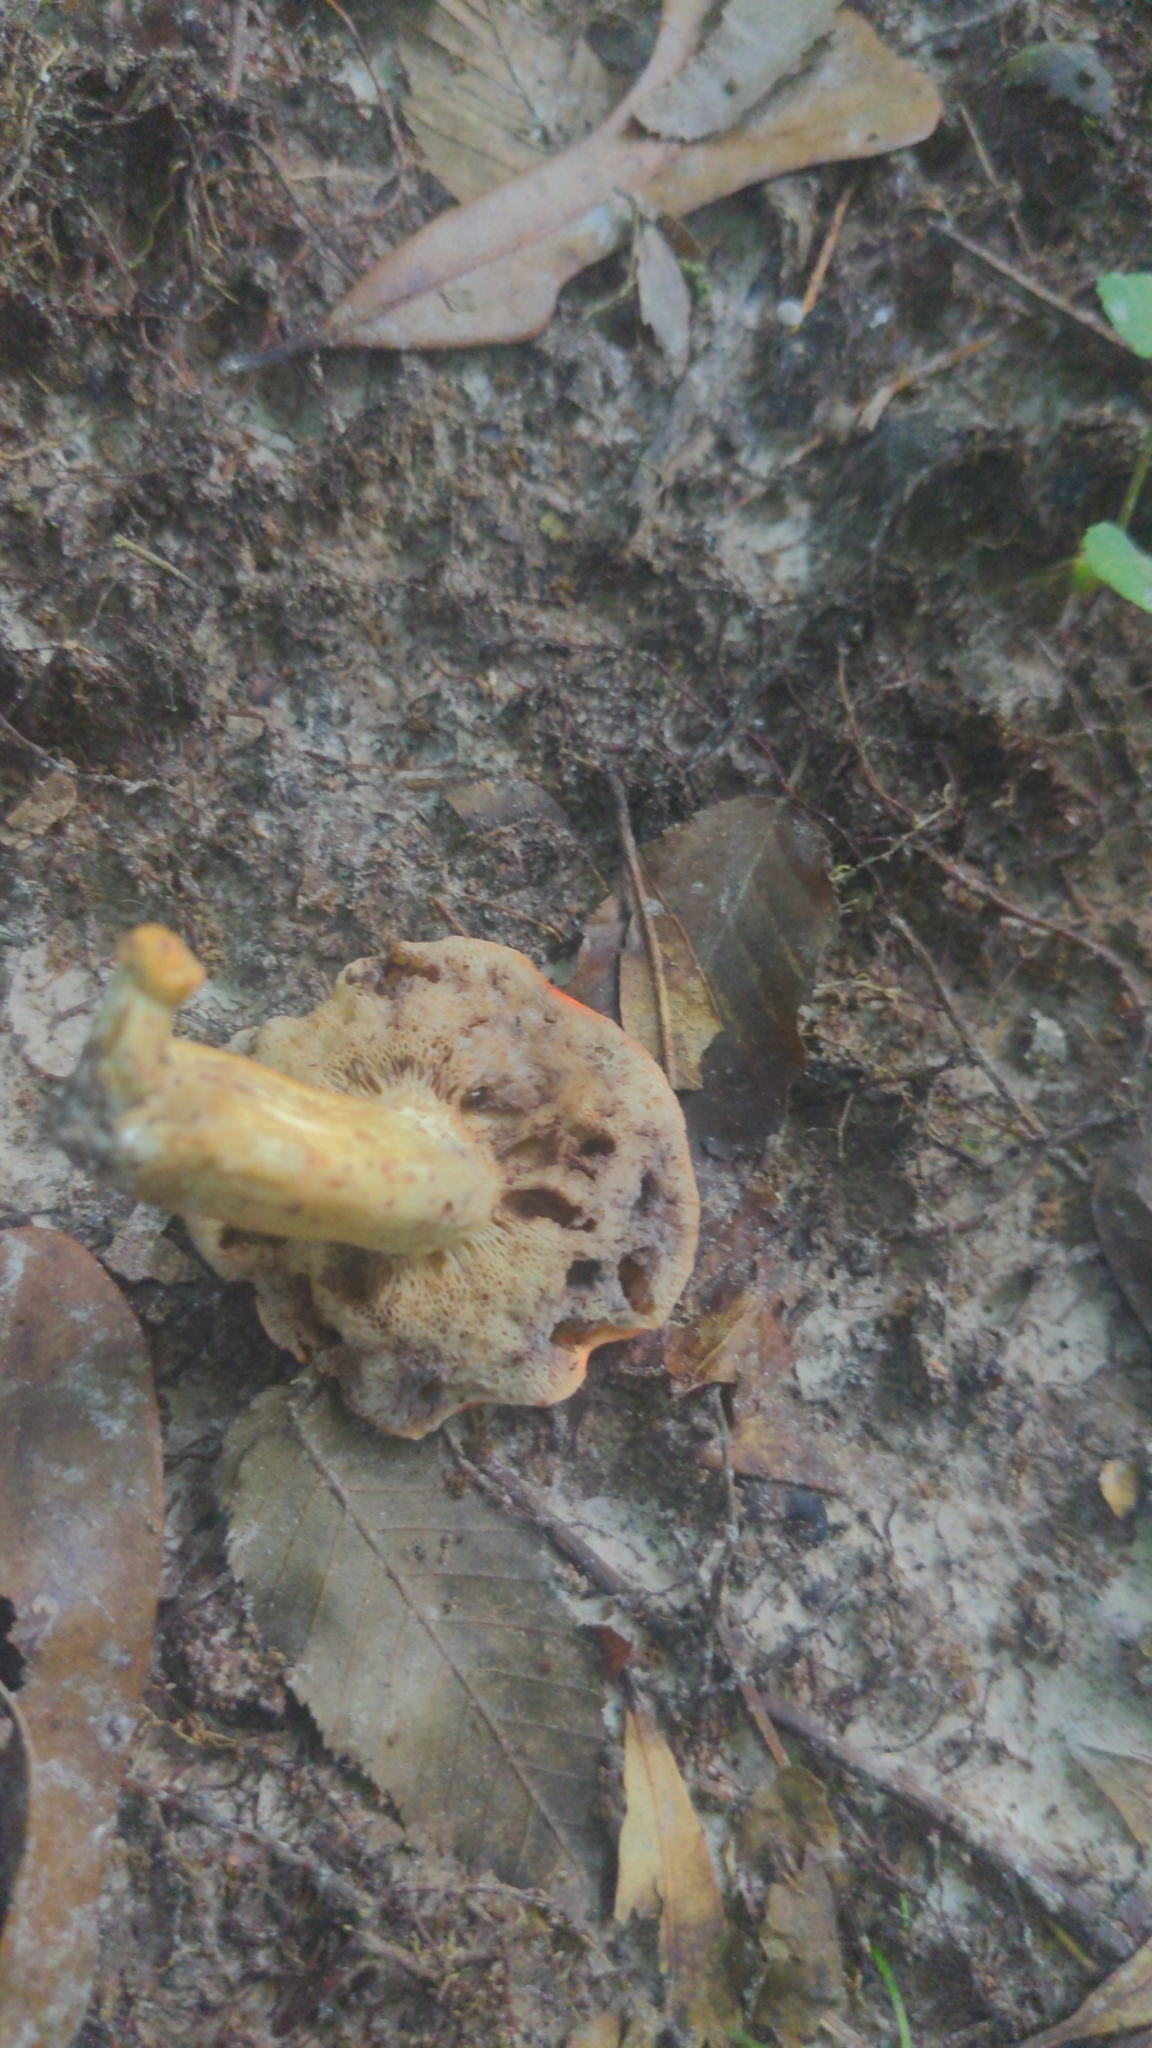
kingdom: Fungi
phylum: Basidiomycota
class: Agaricomycetes
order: Boletales
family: Boletaceae
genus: Tylopilus
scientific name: Tylopilus balloui
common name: Burnt-orange bolete
